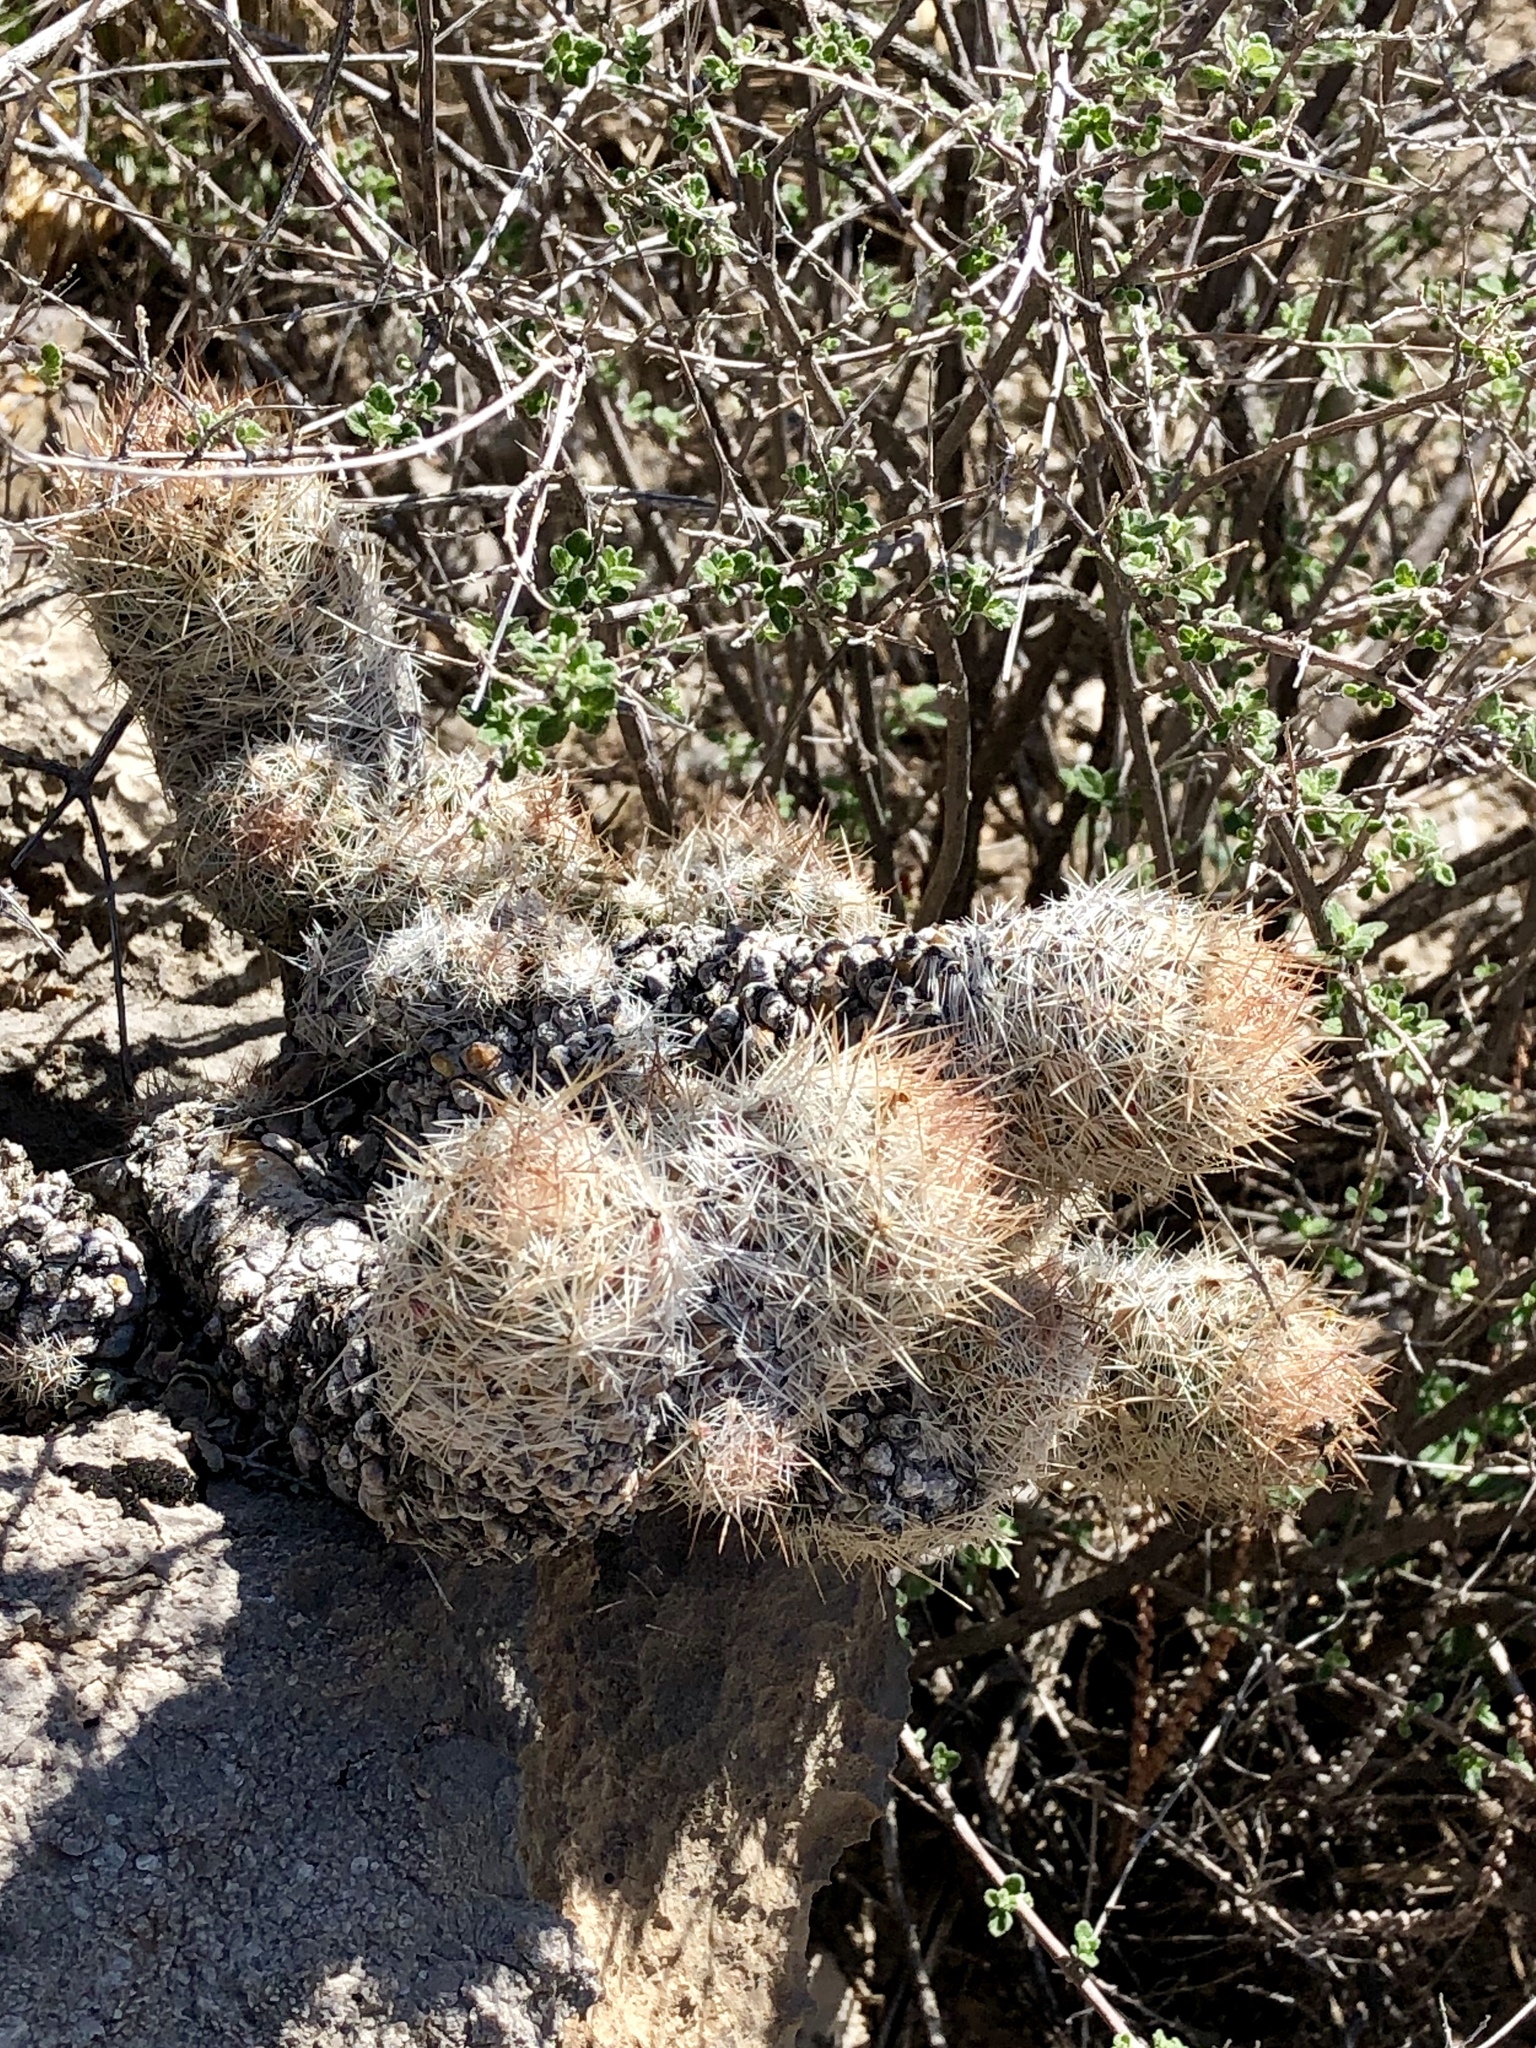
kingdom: Plantae
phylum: Tracheophyta
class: Magnoliopsida
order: Caryophyllales
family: Cactaceae
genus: Pelecyphora
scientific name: Pelecyphora tuberculosa
